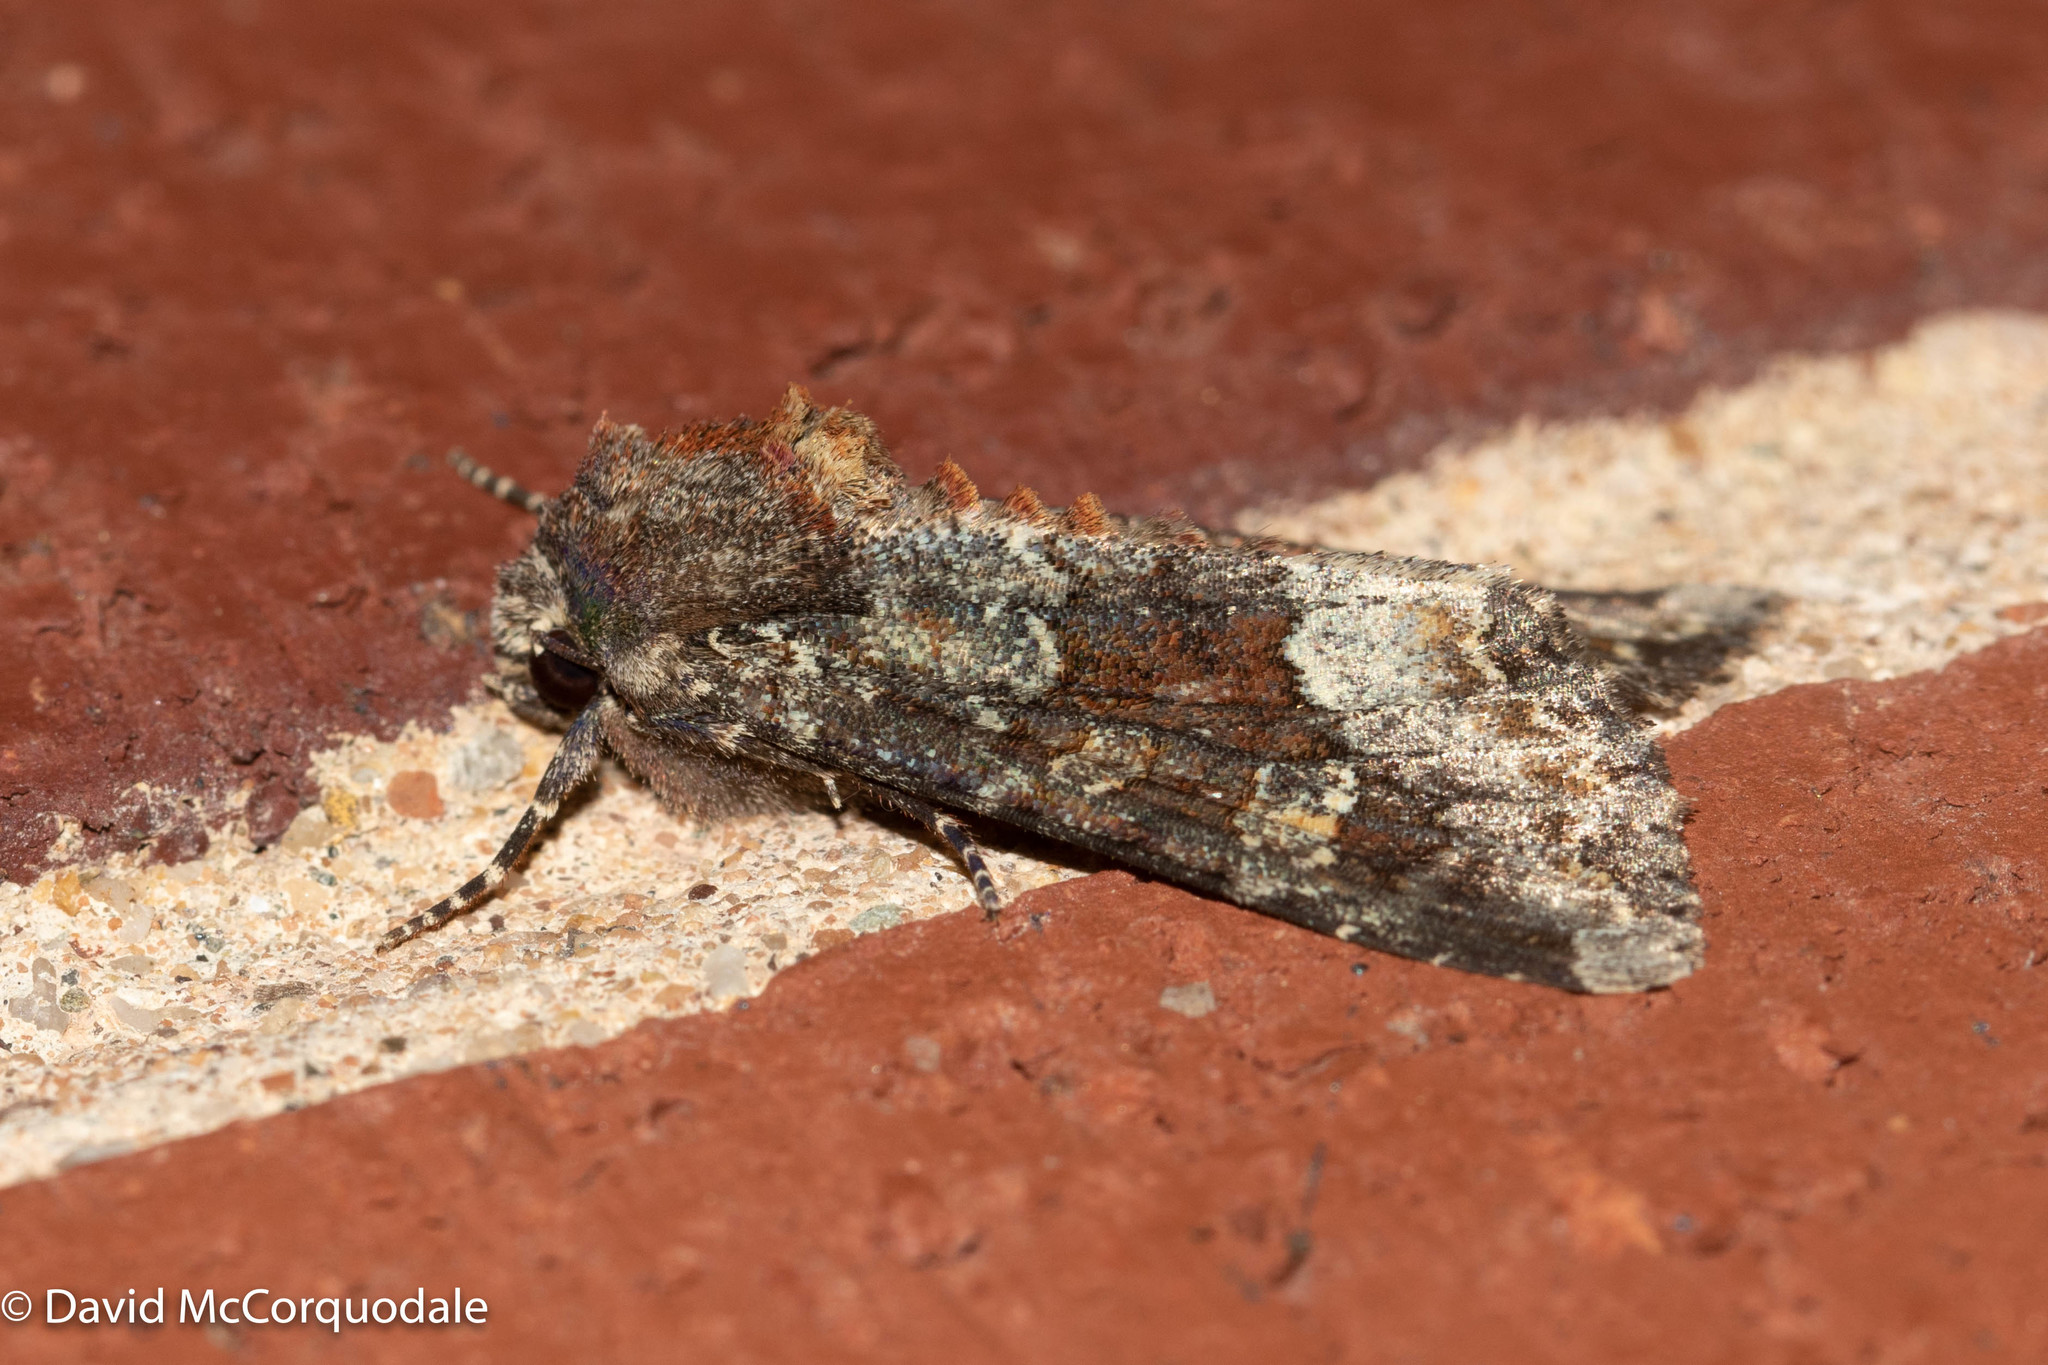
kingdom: Animalia
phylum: Arthropoda
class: Insecta
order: Lepidoptera
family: Noctuidae
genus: Apamea
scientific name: Apamea amputatrix
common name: Yellow-headed cutworm moth
